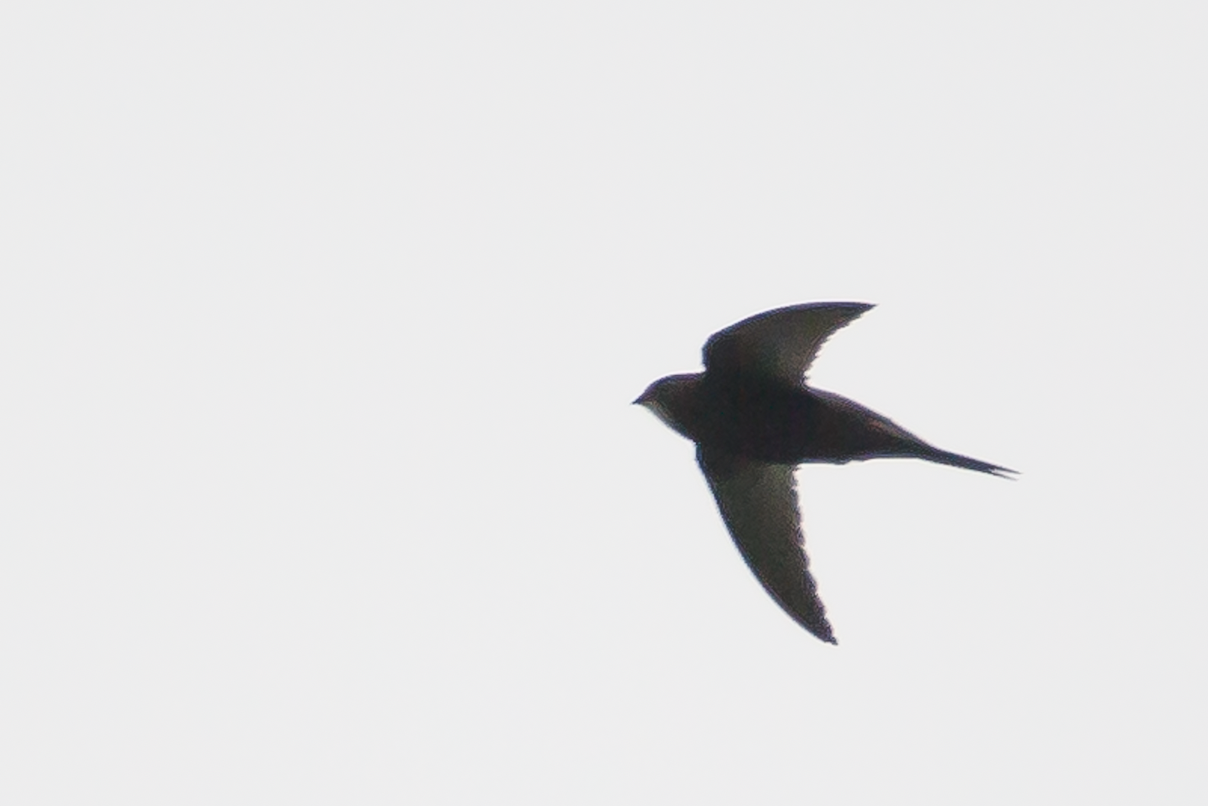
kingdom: Animalia
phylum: Chordata
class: Aves
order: Apodiformes
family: Apodidae
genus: Apus
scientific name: Apus apus
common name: Common swift
